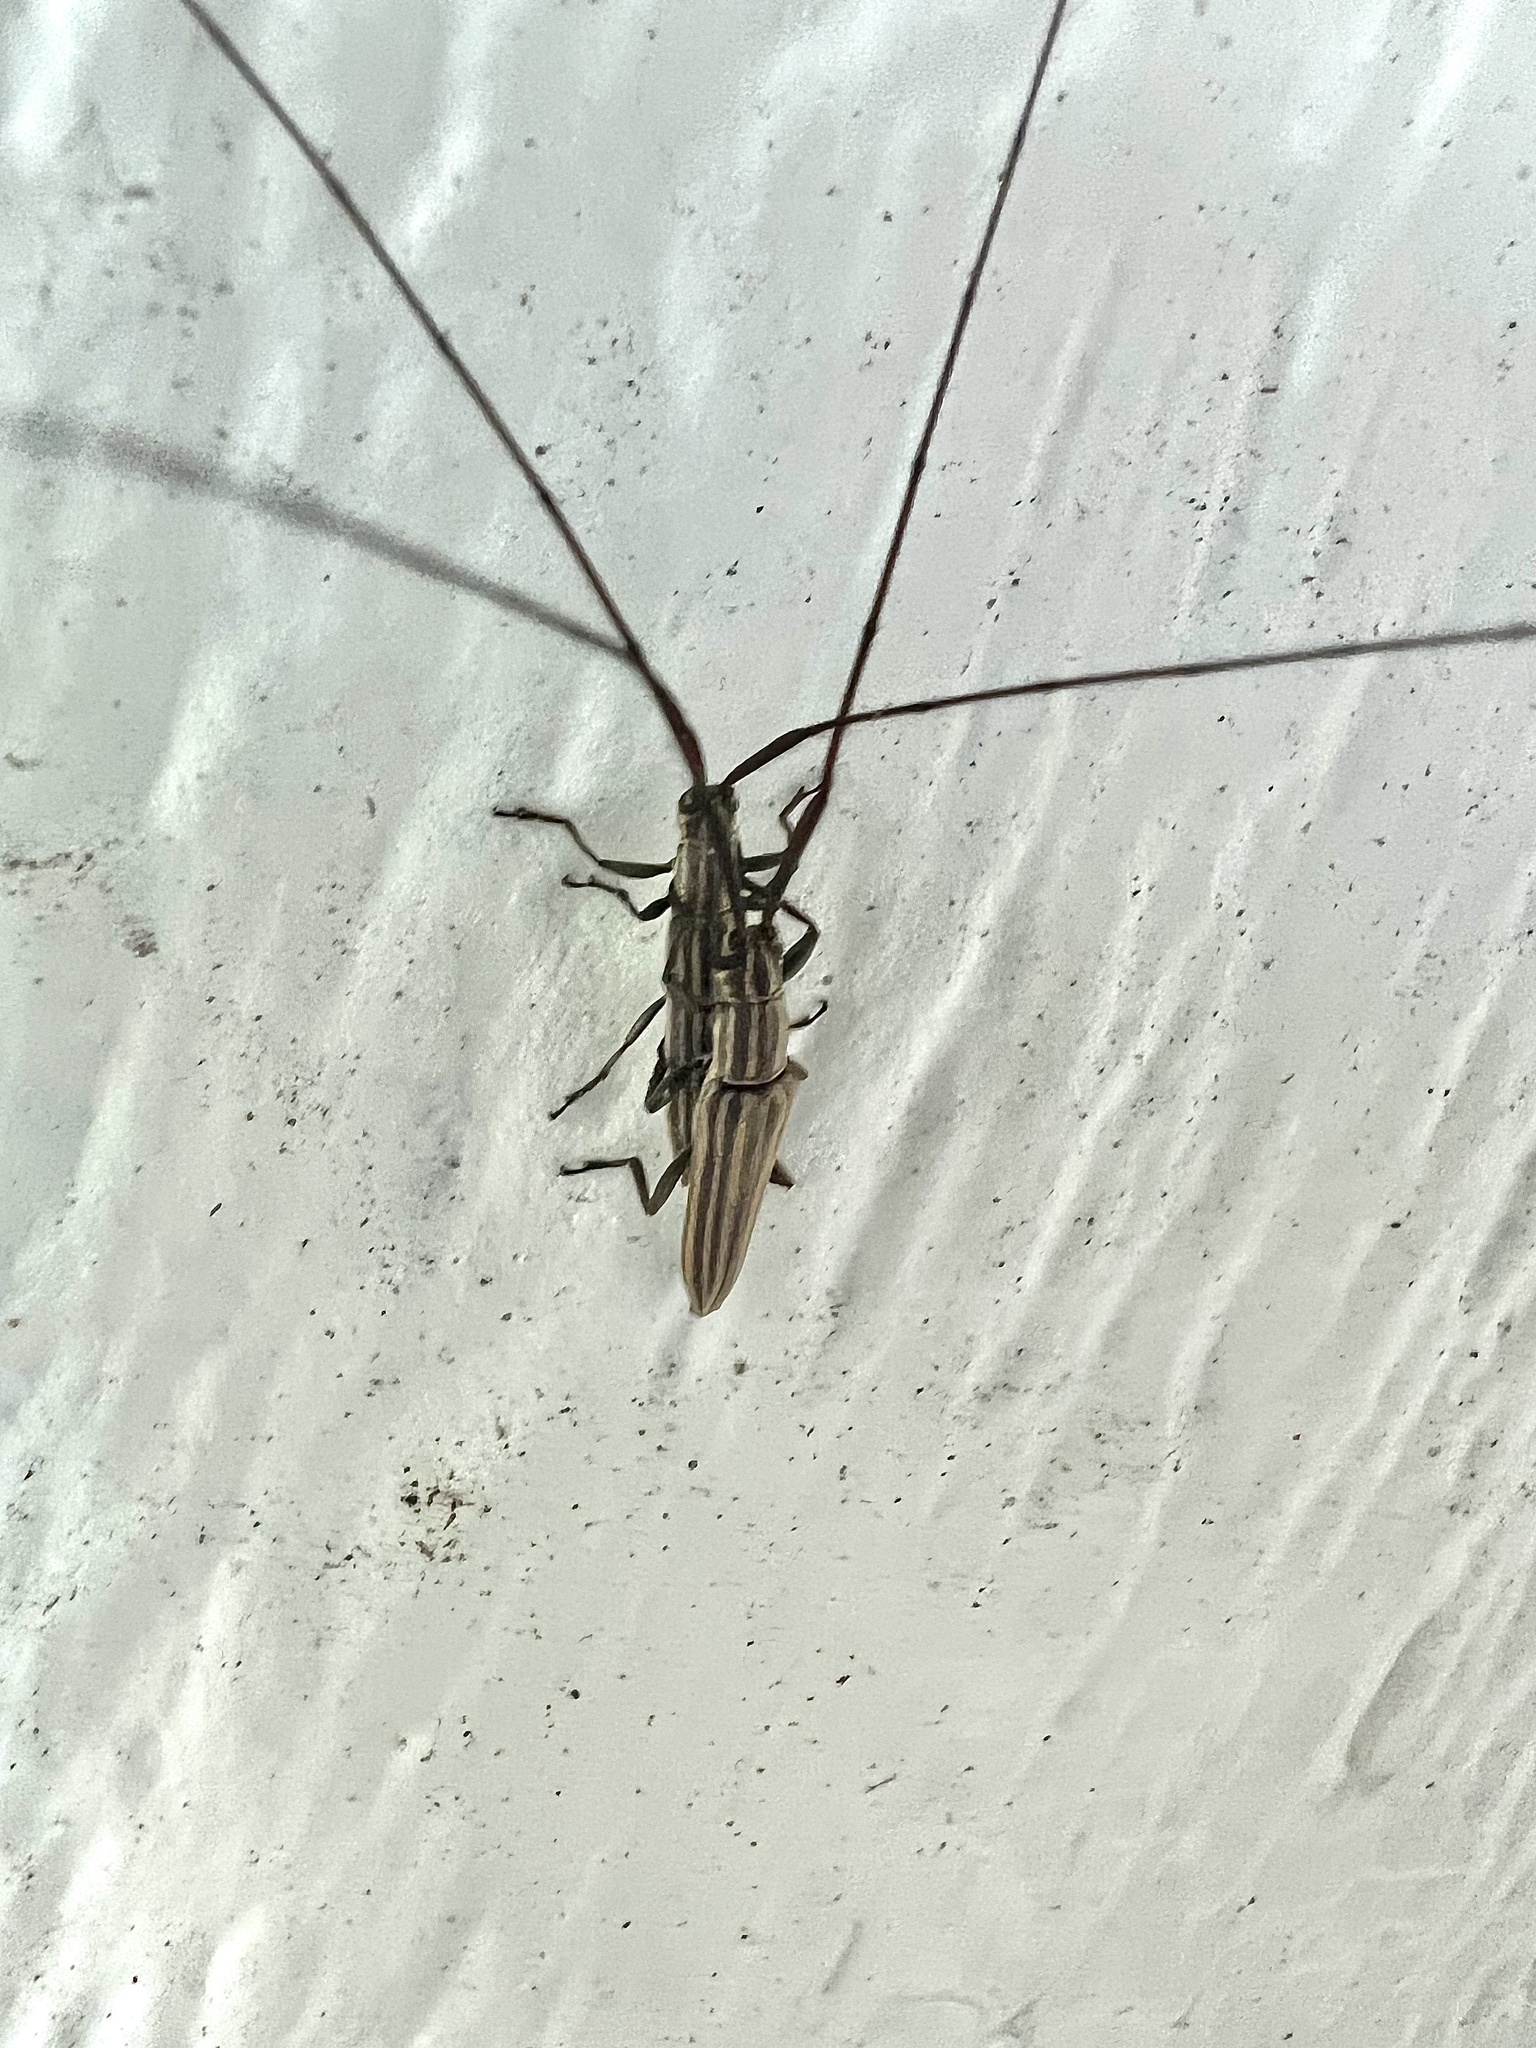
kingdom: Animalia
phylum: Arthropoda
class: Insecta
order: Coleoptera
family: Cerambycidae
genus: Hippopsis
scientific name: Hippopsis
